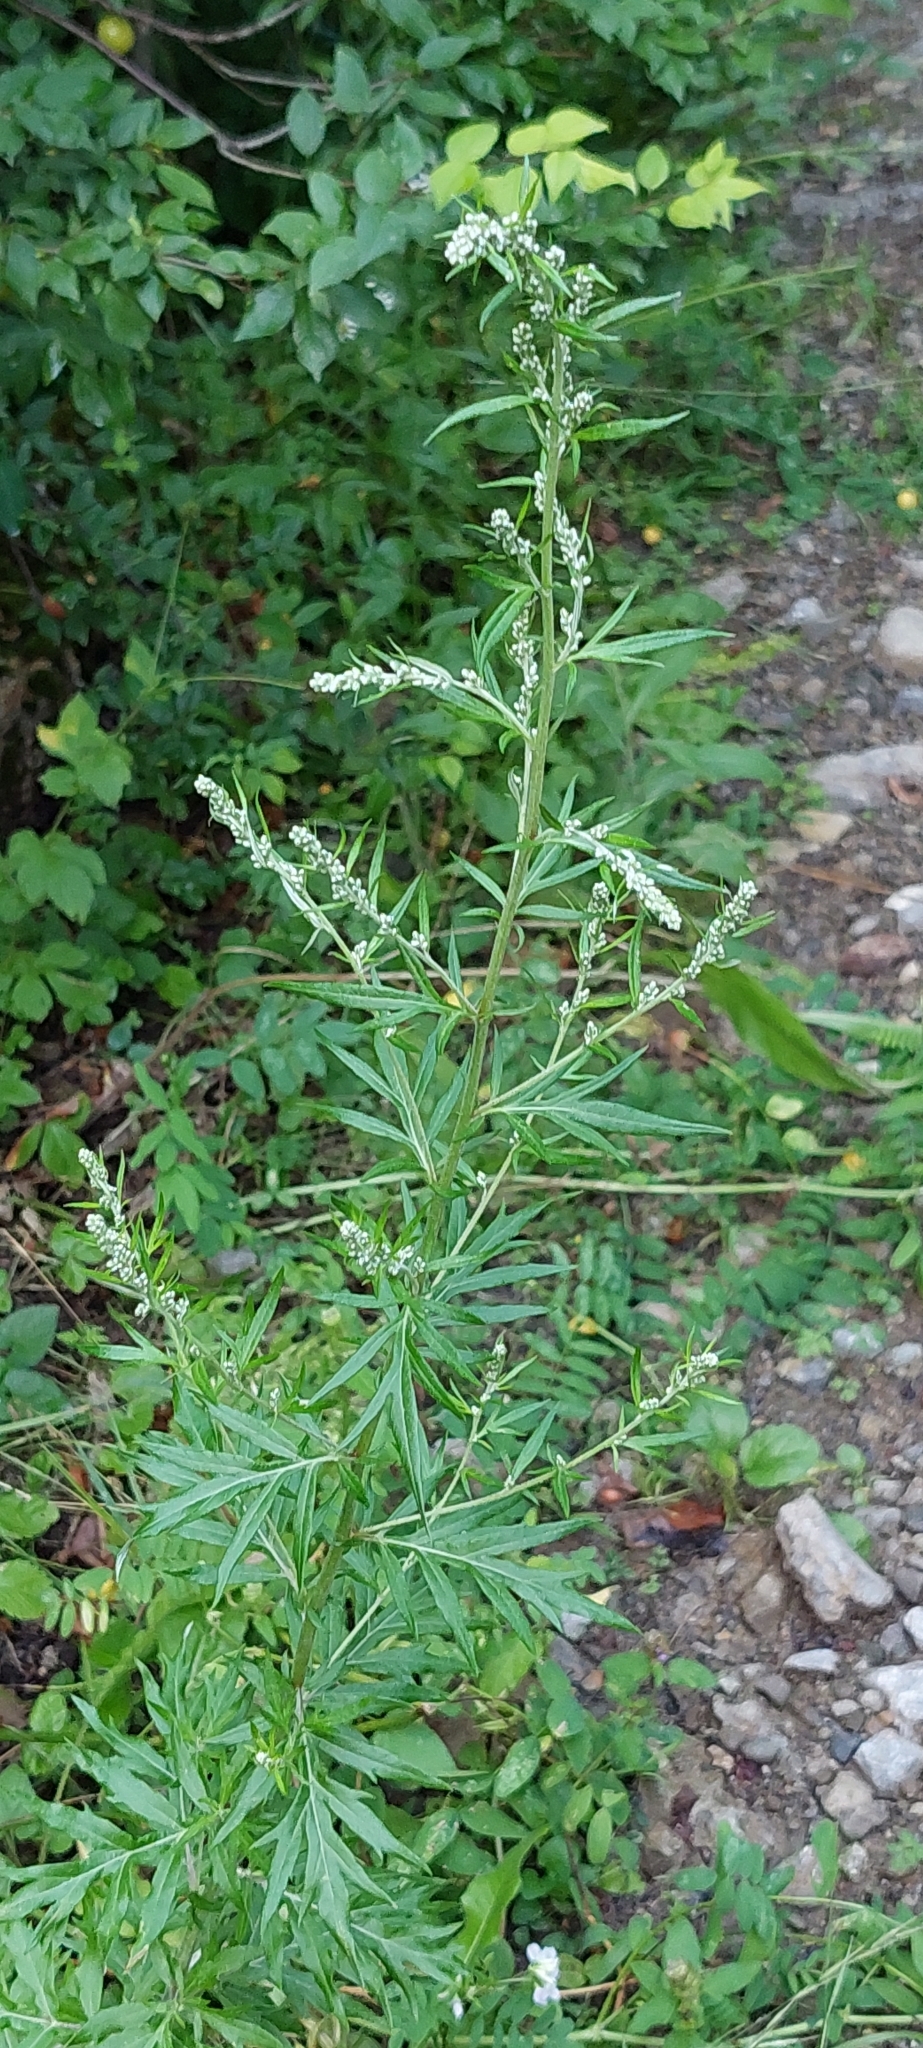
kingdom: Plantae
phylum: Tracheophyta
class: Magnoliopsida
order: Asterales
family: Asteraceae
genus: Artemisia
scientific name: Artemisia vulgaris
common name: Mugwort
